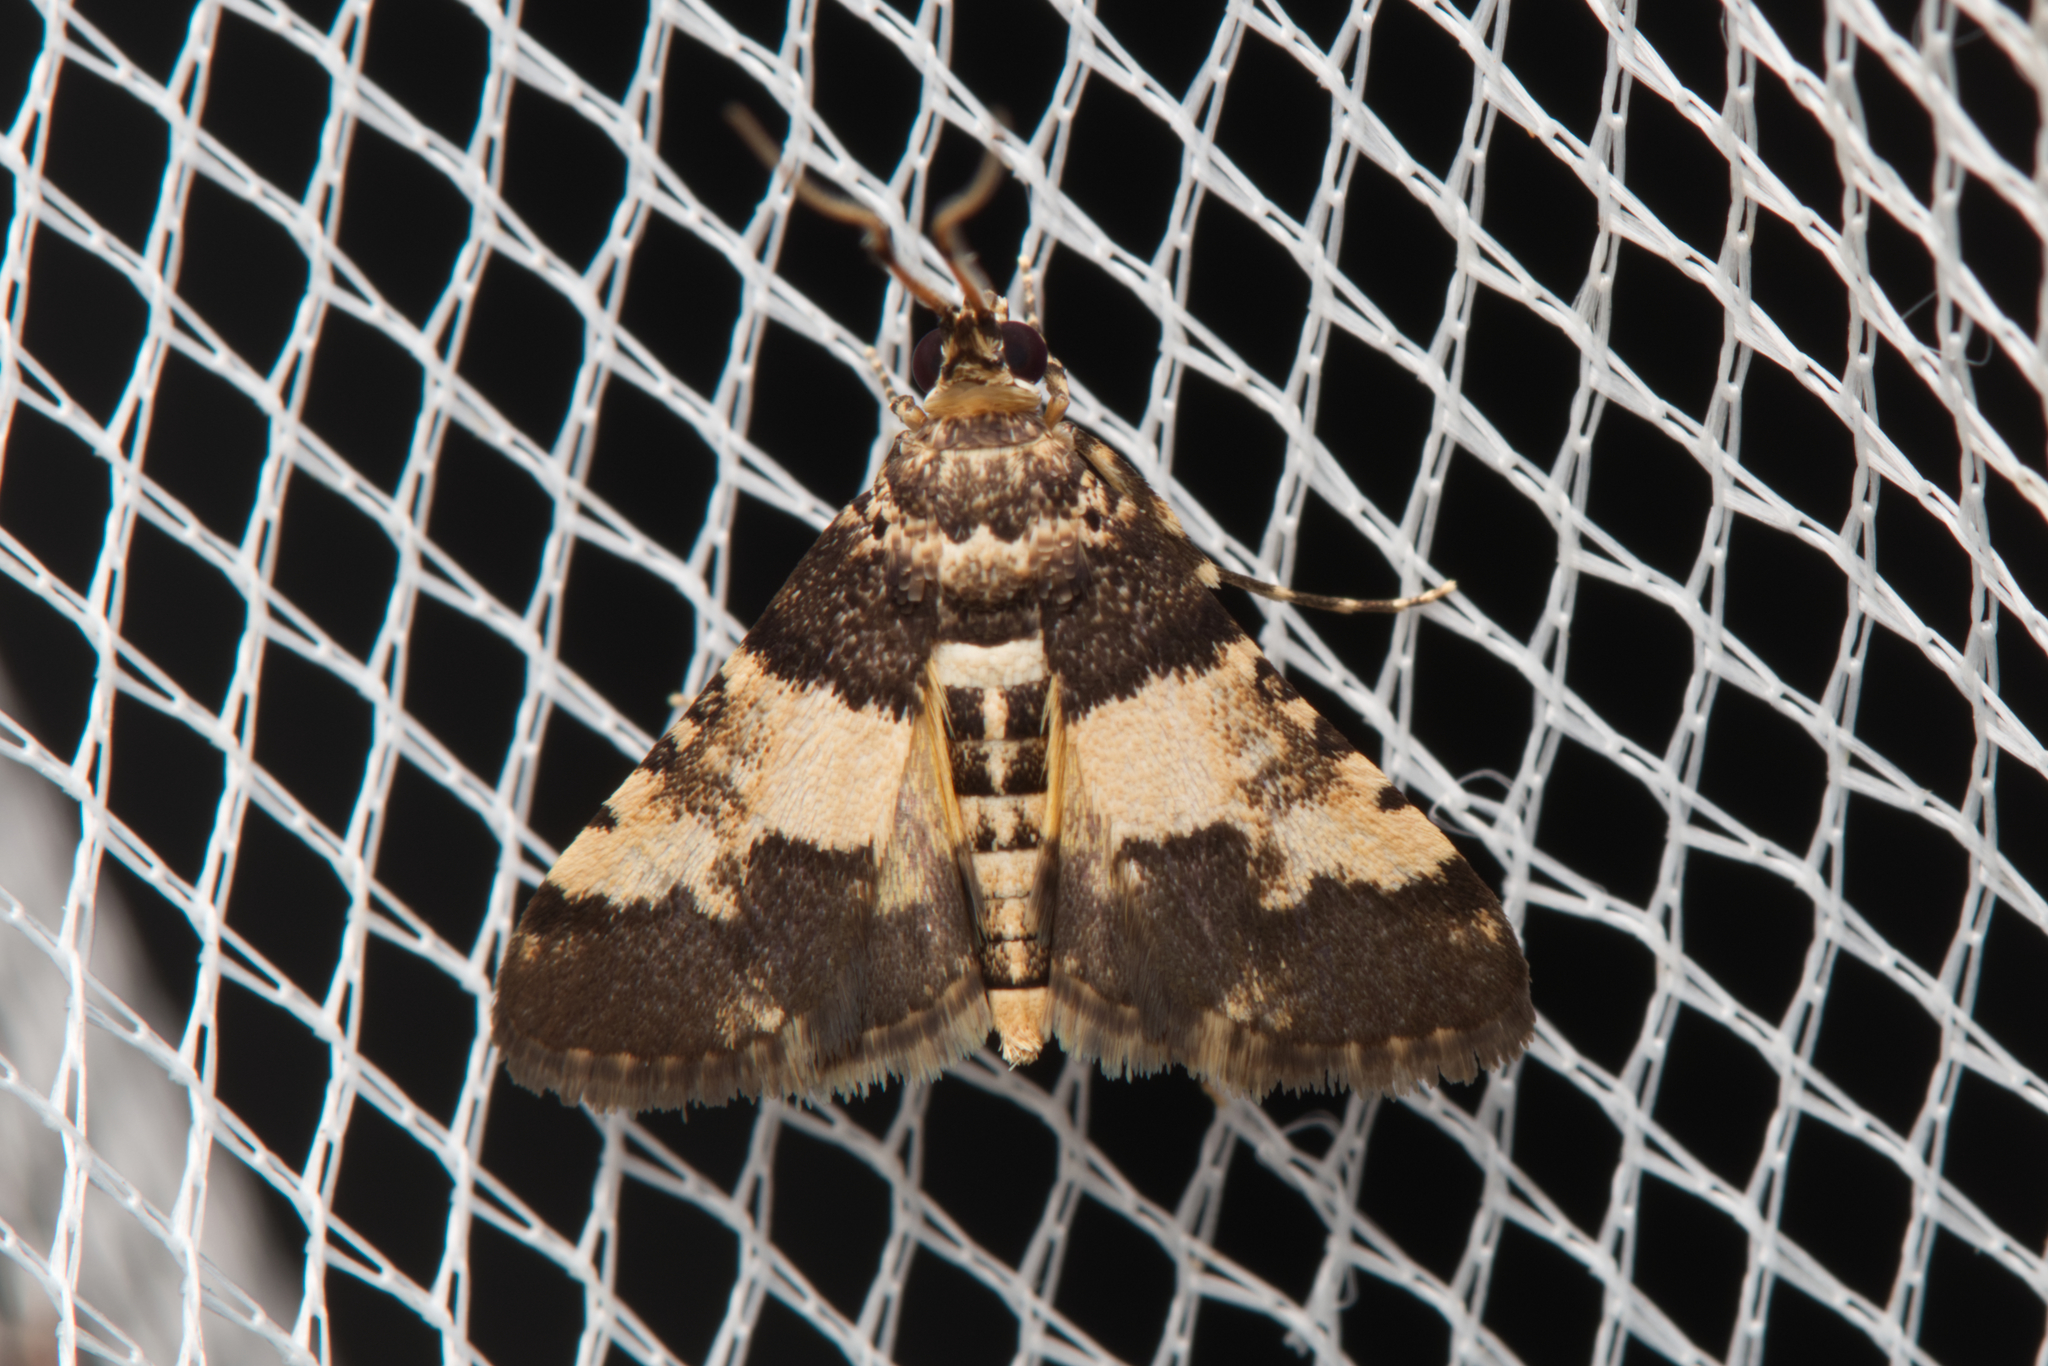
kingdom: Animalia
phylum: Arthropoda
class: Insecta
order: Lepidoptera
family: Crambidae
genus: Nacoleia
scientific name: Nacoleia mesochlora
